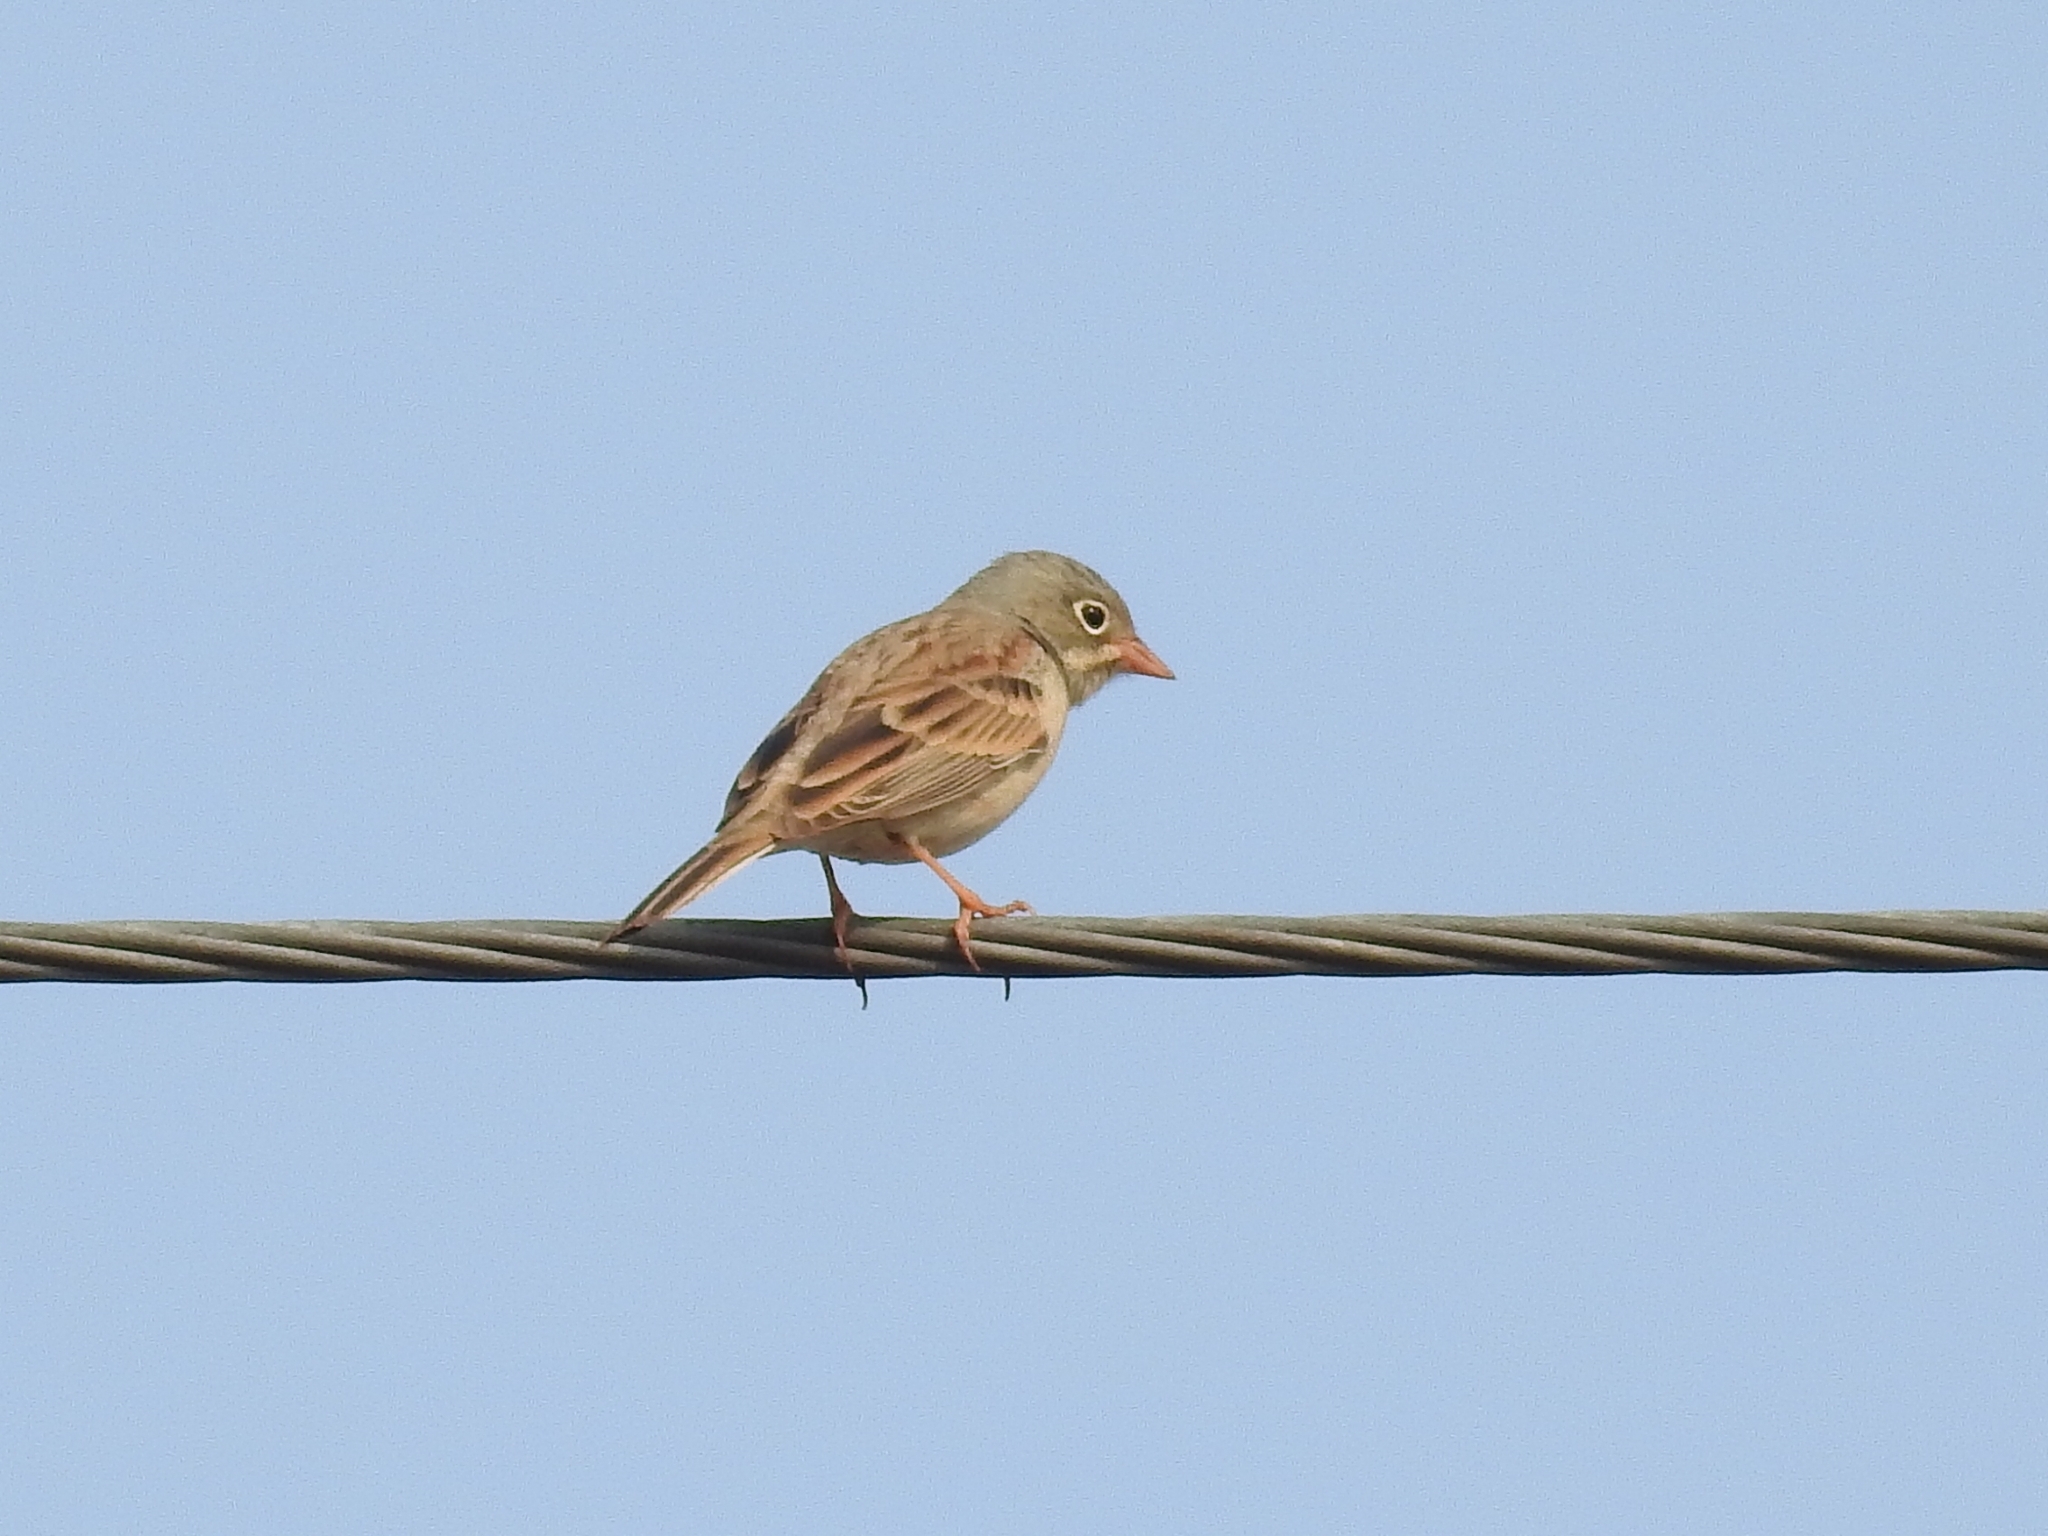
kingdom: Animalia
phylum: Chordata
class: Aves
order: Passeriformes
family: Emberizidae
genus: Emberiza
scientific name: Emberiza buchanani
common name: Grey-necked bunting
